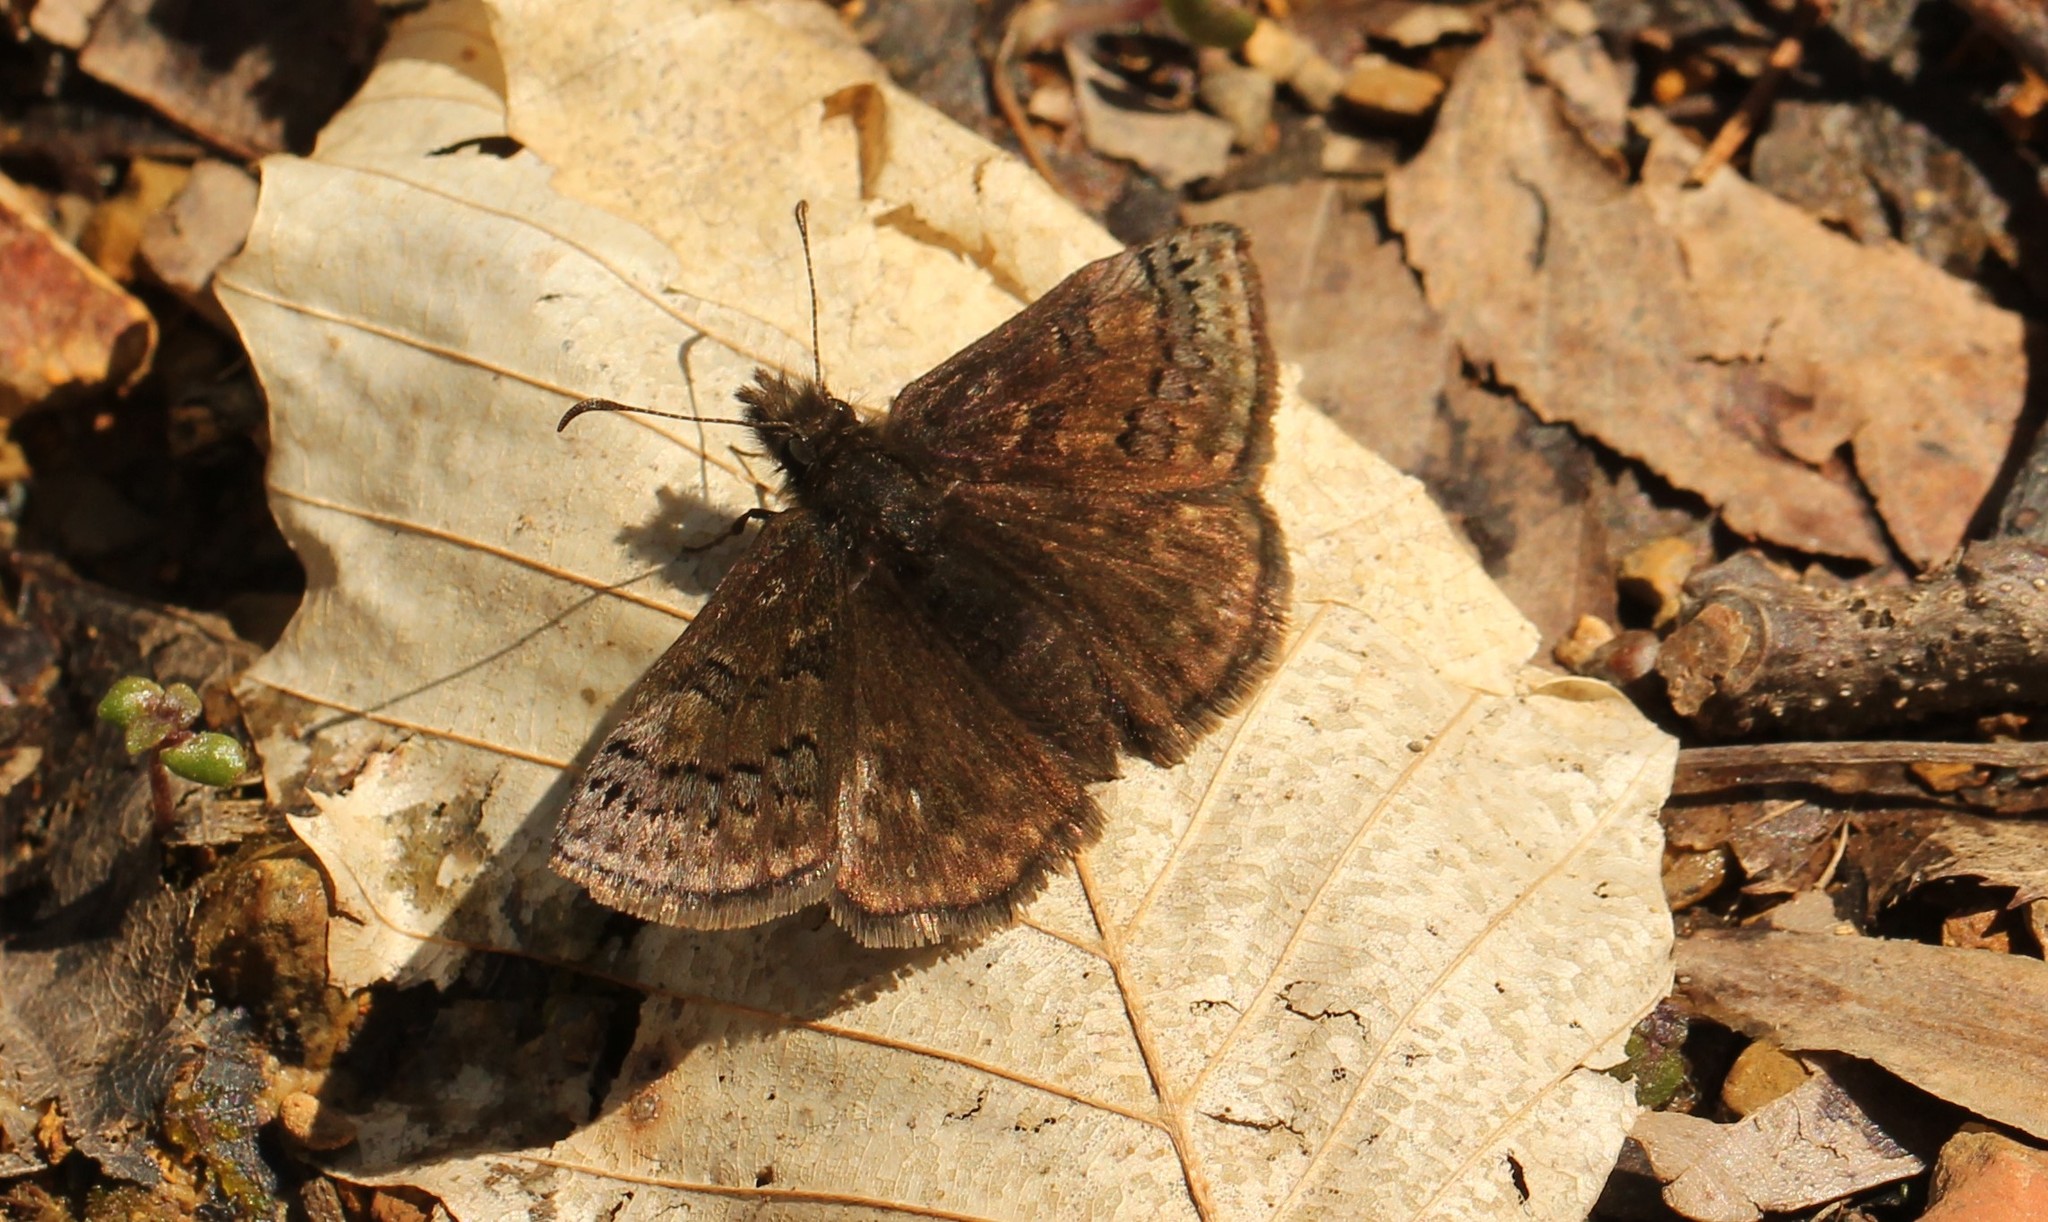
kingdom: Animalia
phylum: Arthropoda
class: Insecta
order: Lepidoptera
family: Hesperiidae
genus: Erynnis
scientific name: Erynnis brizo
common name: Sleepy duskywing
